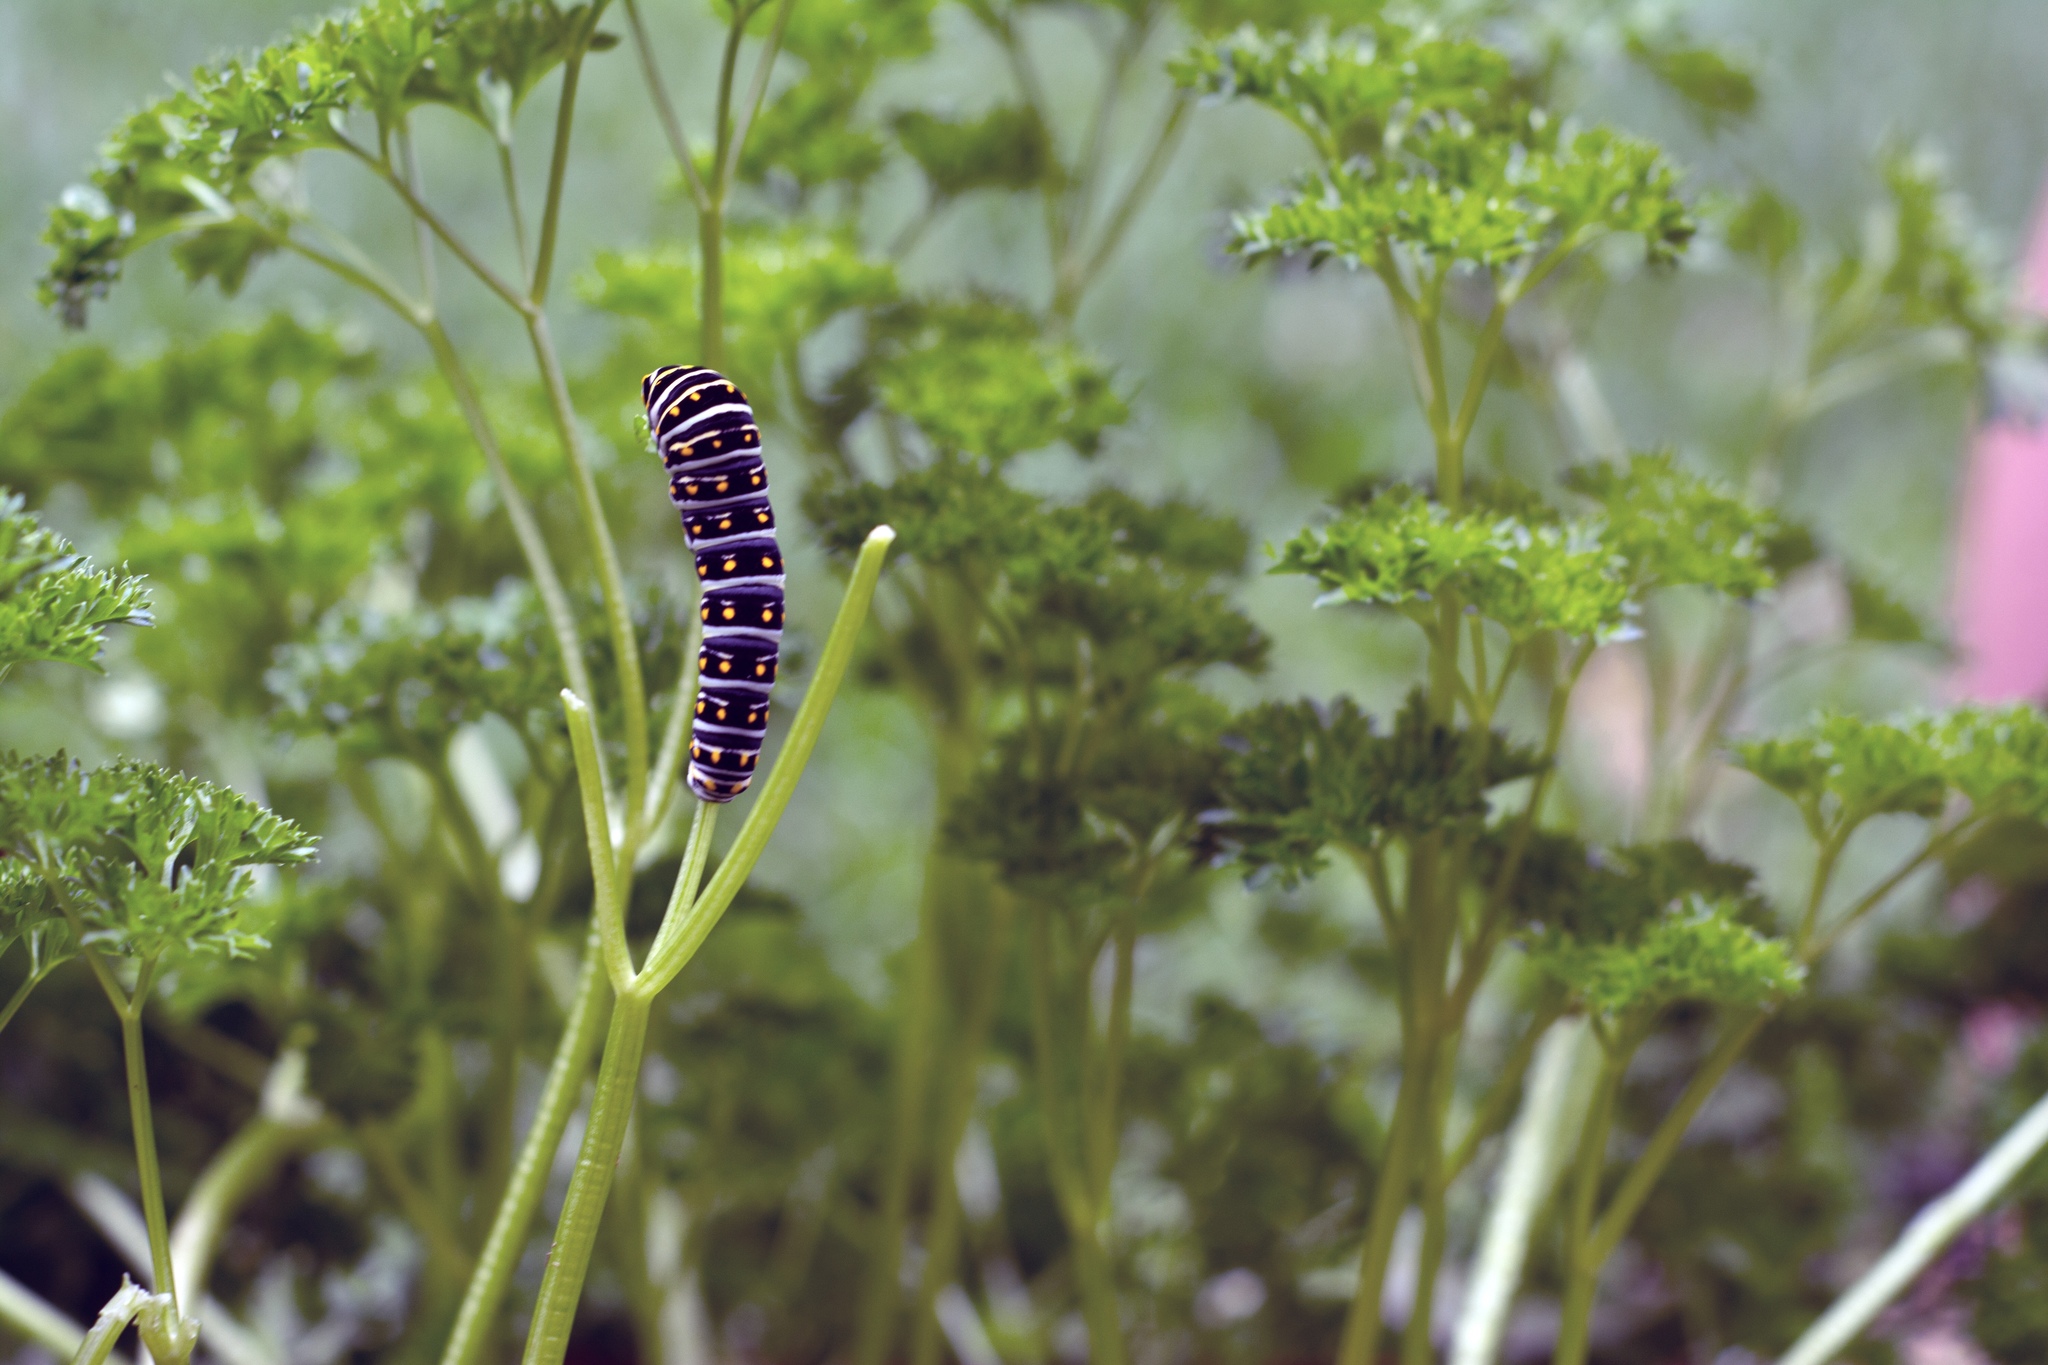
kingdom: Animalia
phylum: Arthropoda
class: Insecta
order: Lepidoptera
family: Papilionidae
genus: Papilio
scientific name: Papilio polyxenes
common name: Black swallowtail
